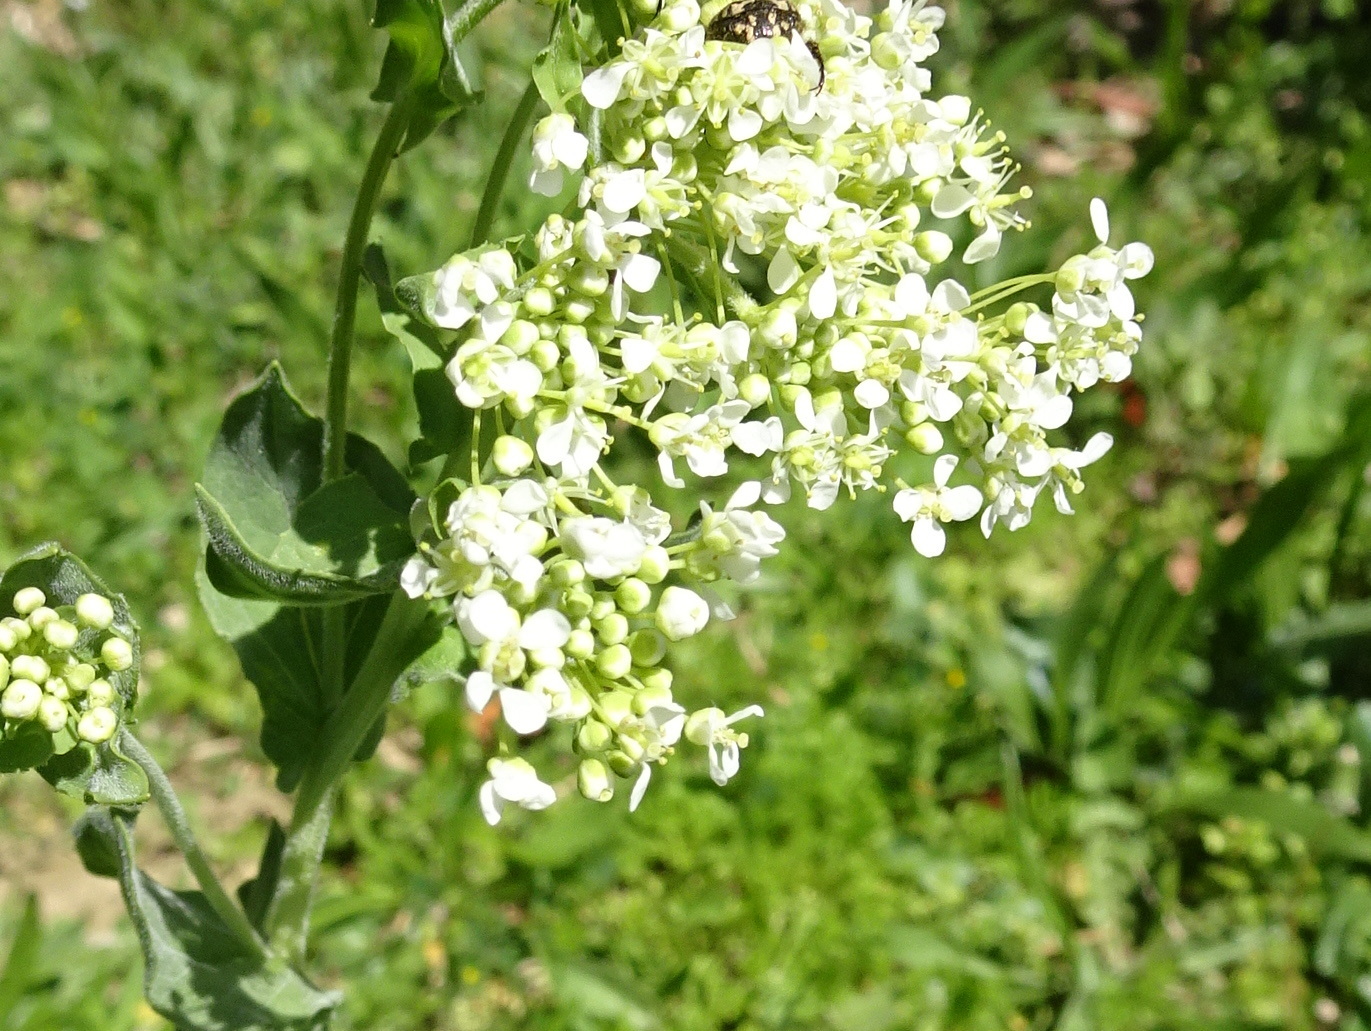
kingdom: Plantae
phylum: Tracheophyta
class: Magnoliopsida
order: Brassicales
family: Brassicaceae
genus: Lepidium
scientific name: Lepidium draba
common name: Hoary cress
